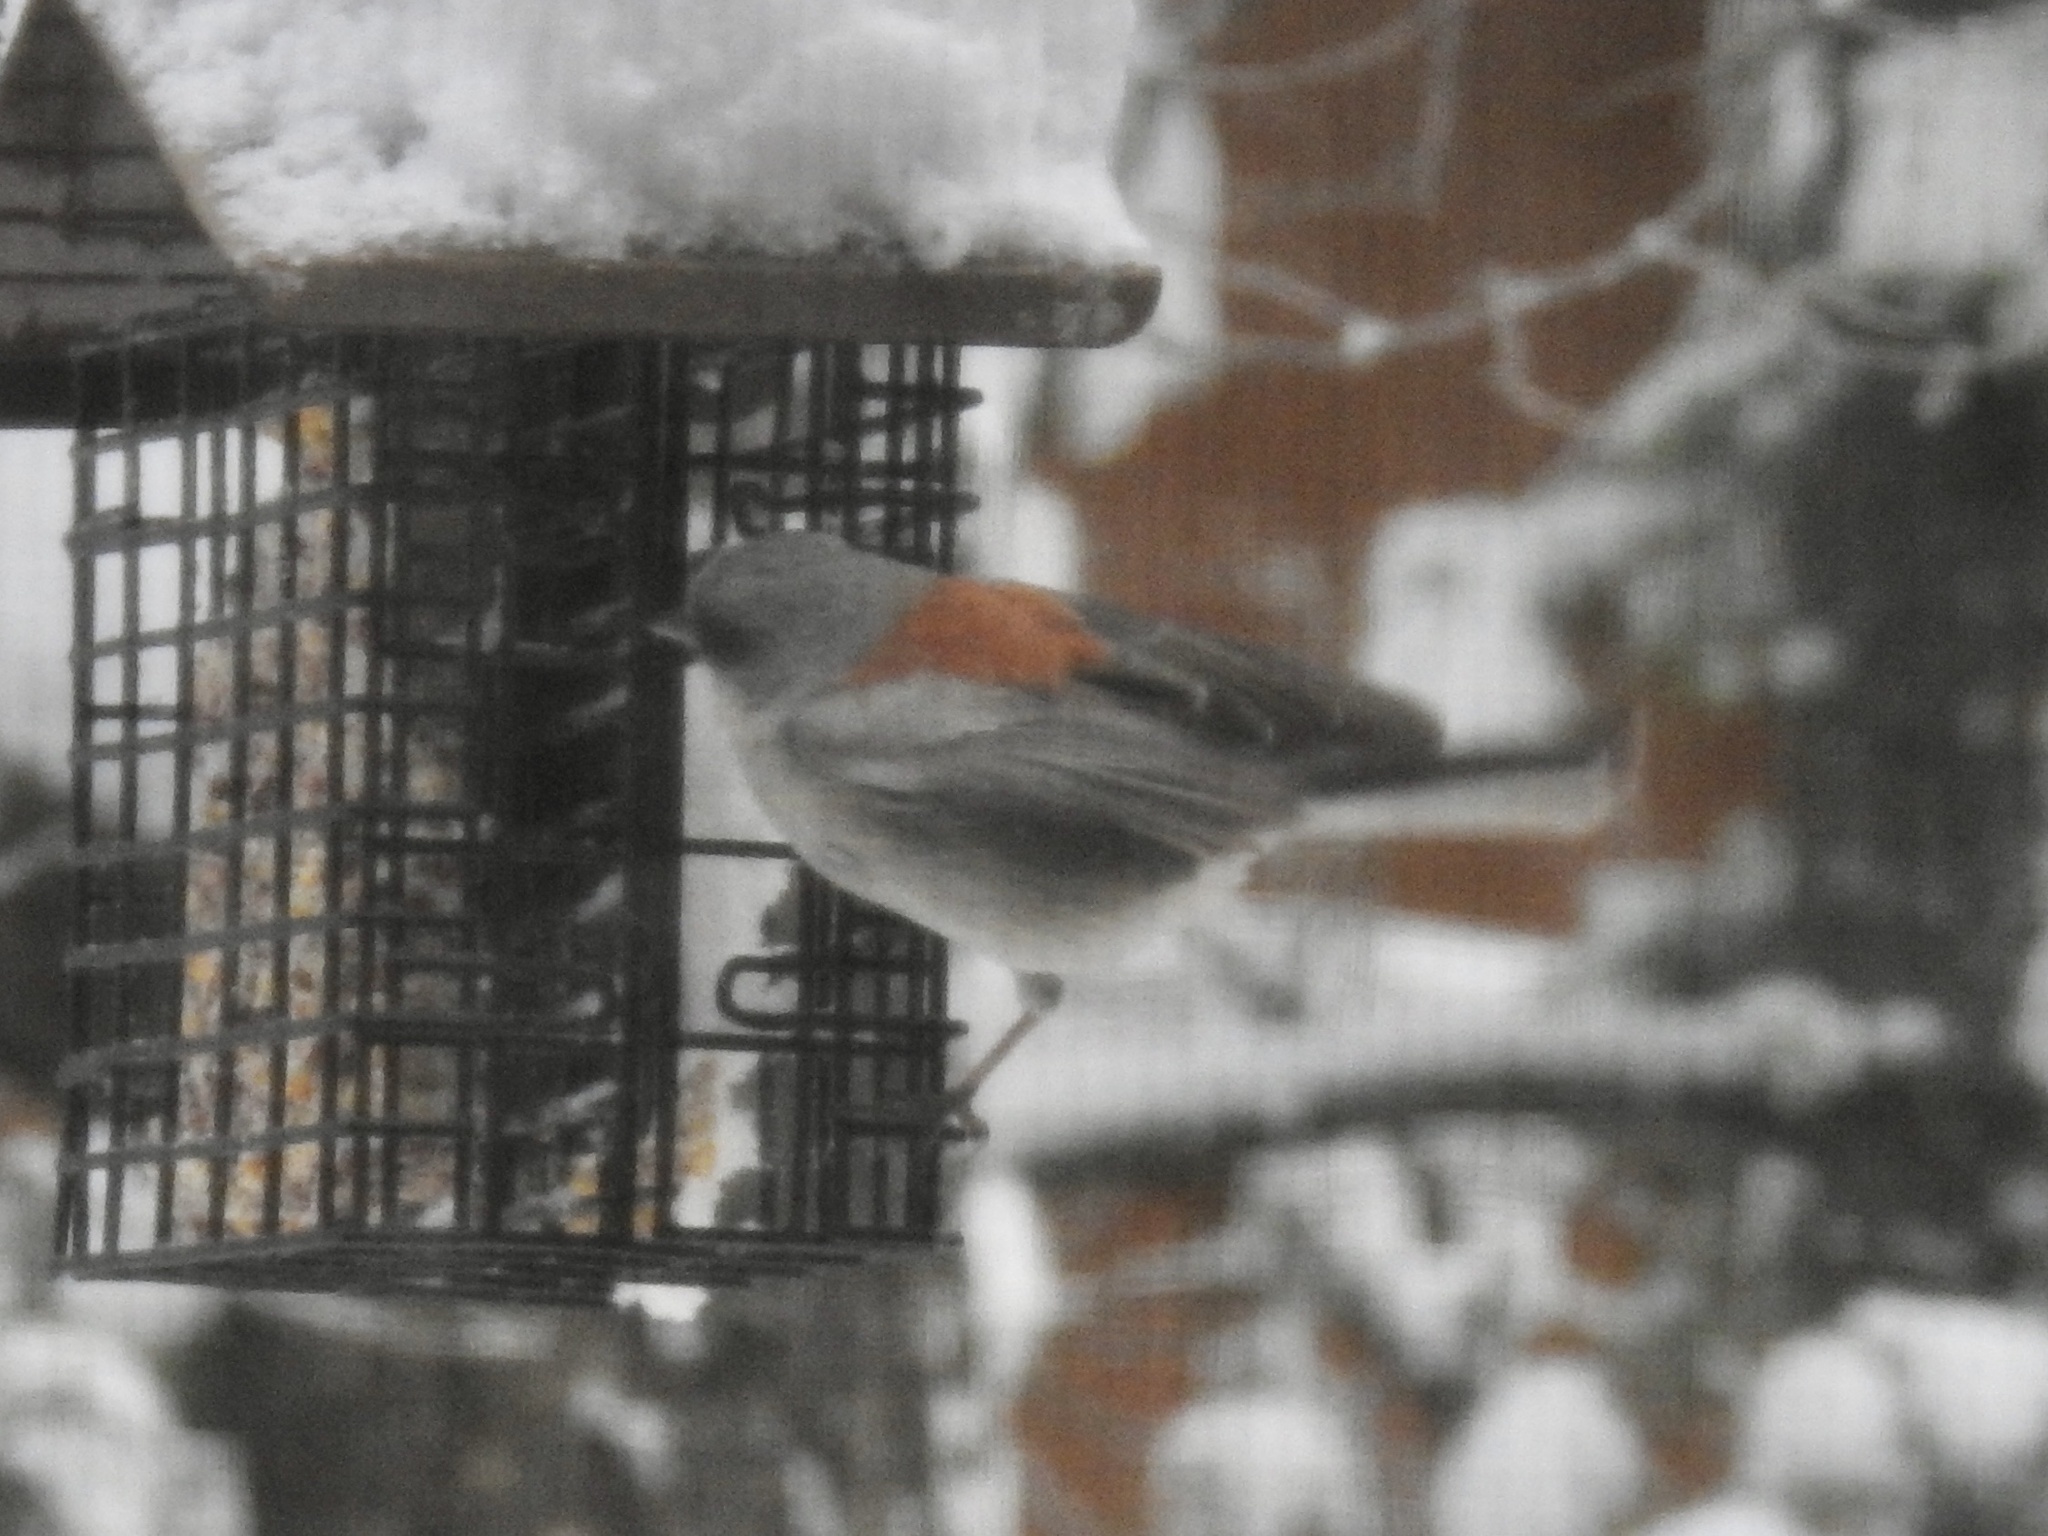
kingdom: Animalia
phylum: Chordata
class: Aves
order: Passeriformes
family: Passerellidae
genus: Junco
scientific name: Junco hyemalis
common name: Dark-eyed junco
